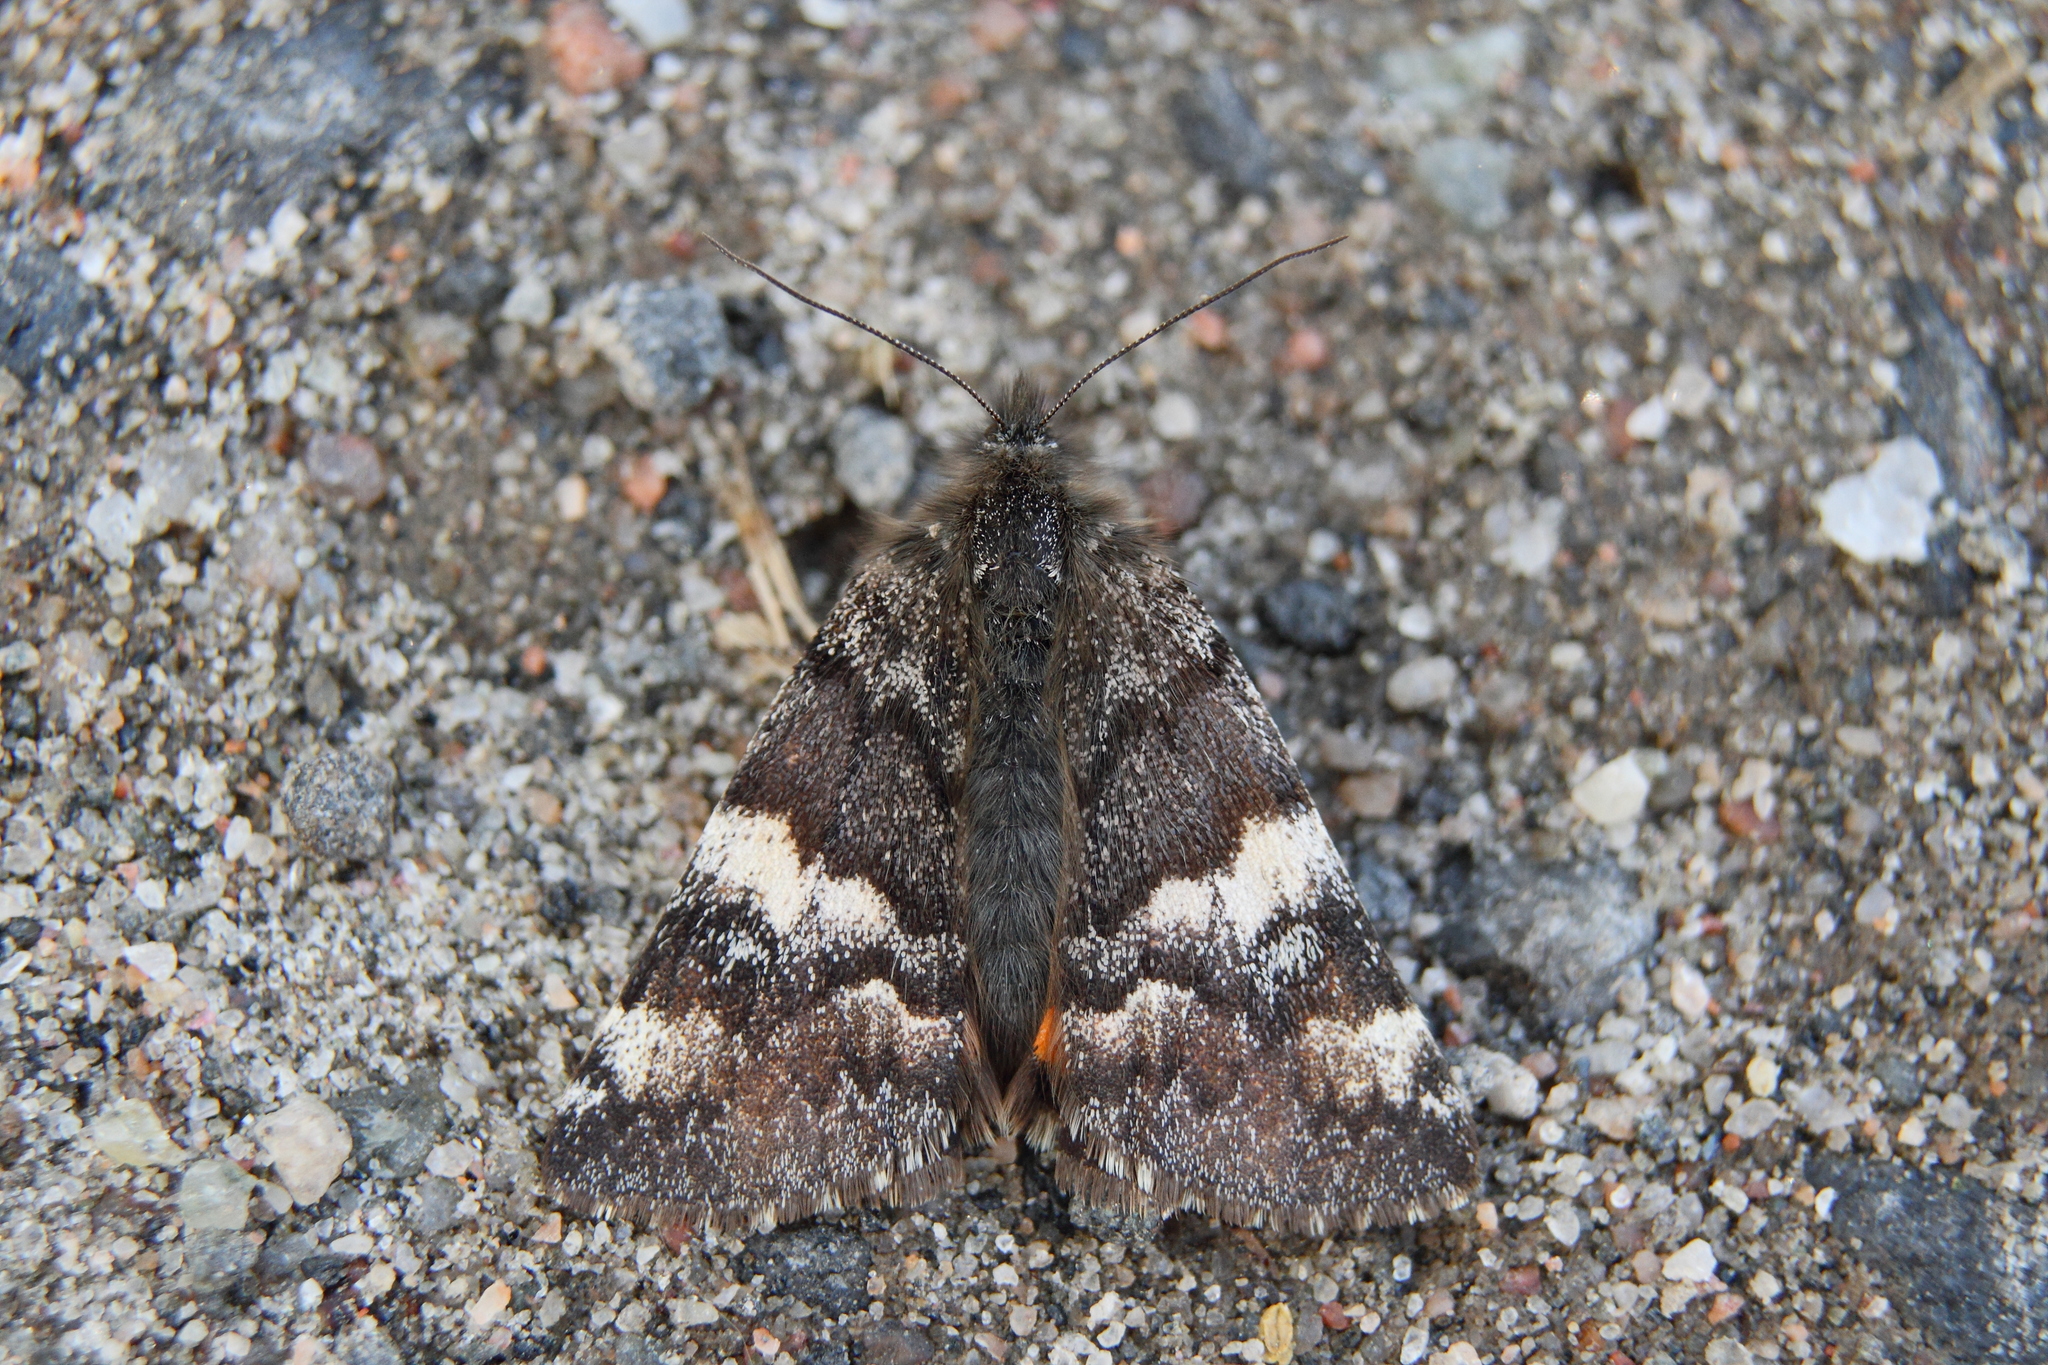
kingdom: Animalia
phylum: Arthropoda
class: Insecta
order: Lepidoptera
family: Geometridae
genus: Archiearis
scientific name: Archiearis parthenias
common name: Orange underwing
